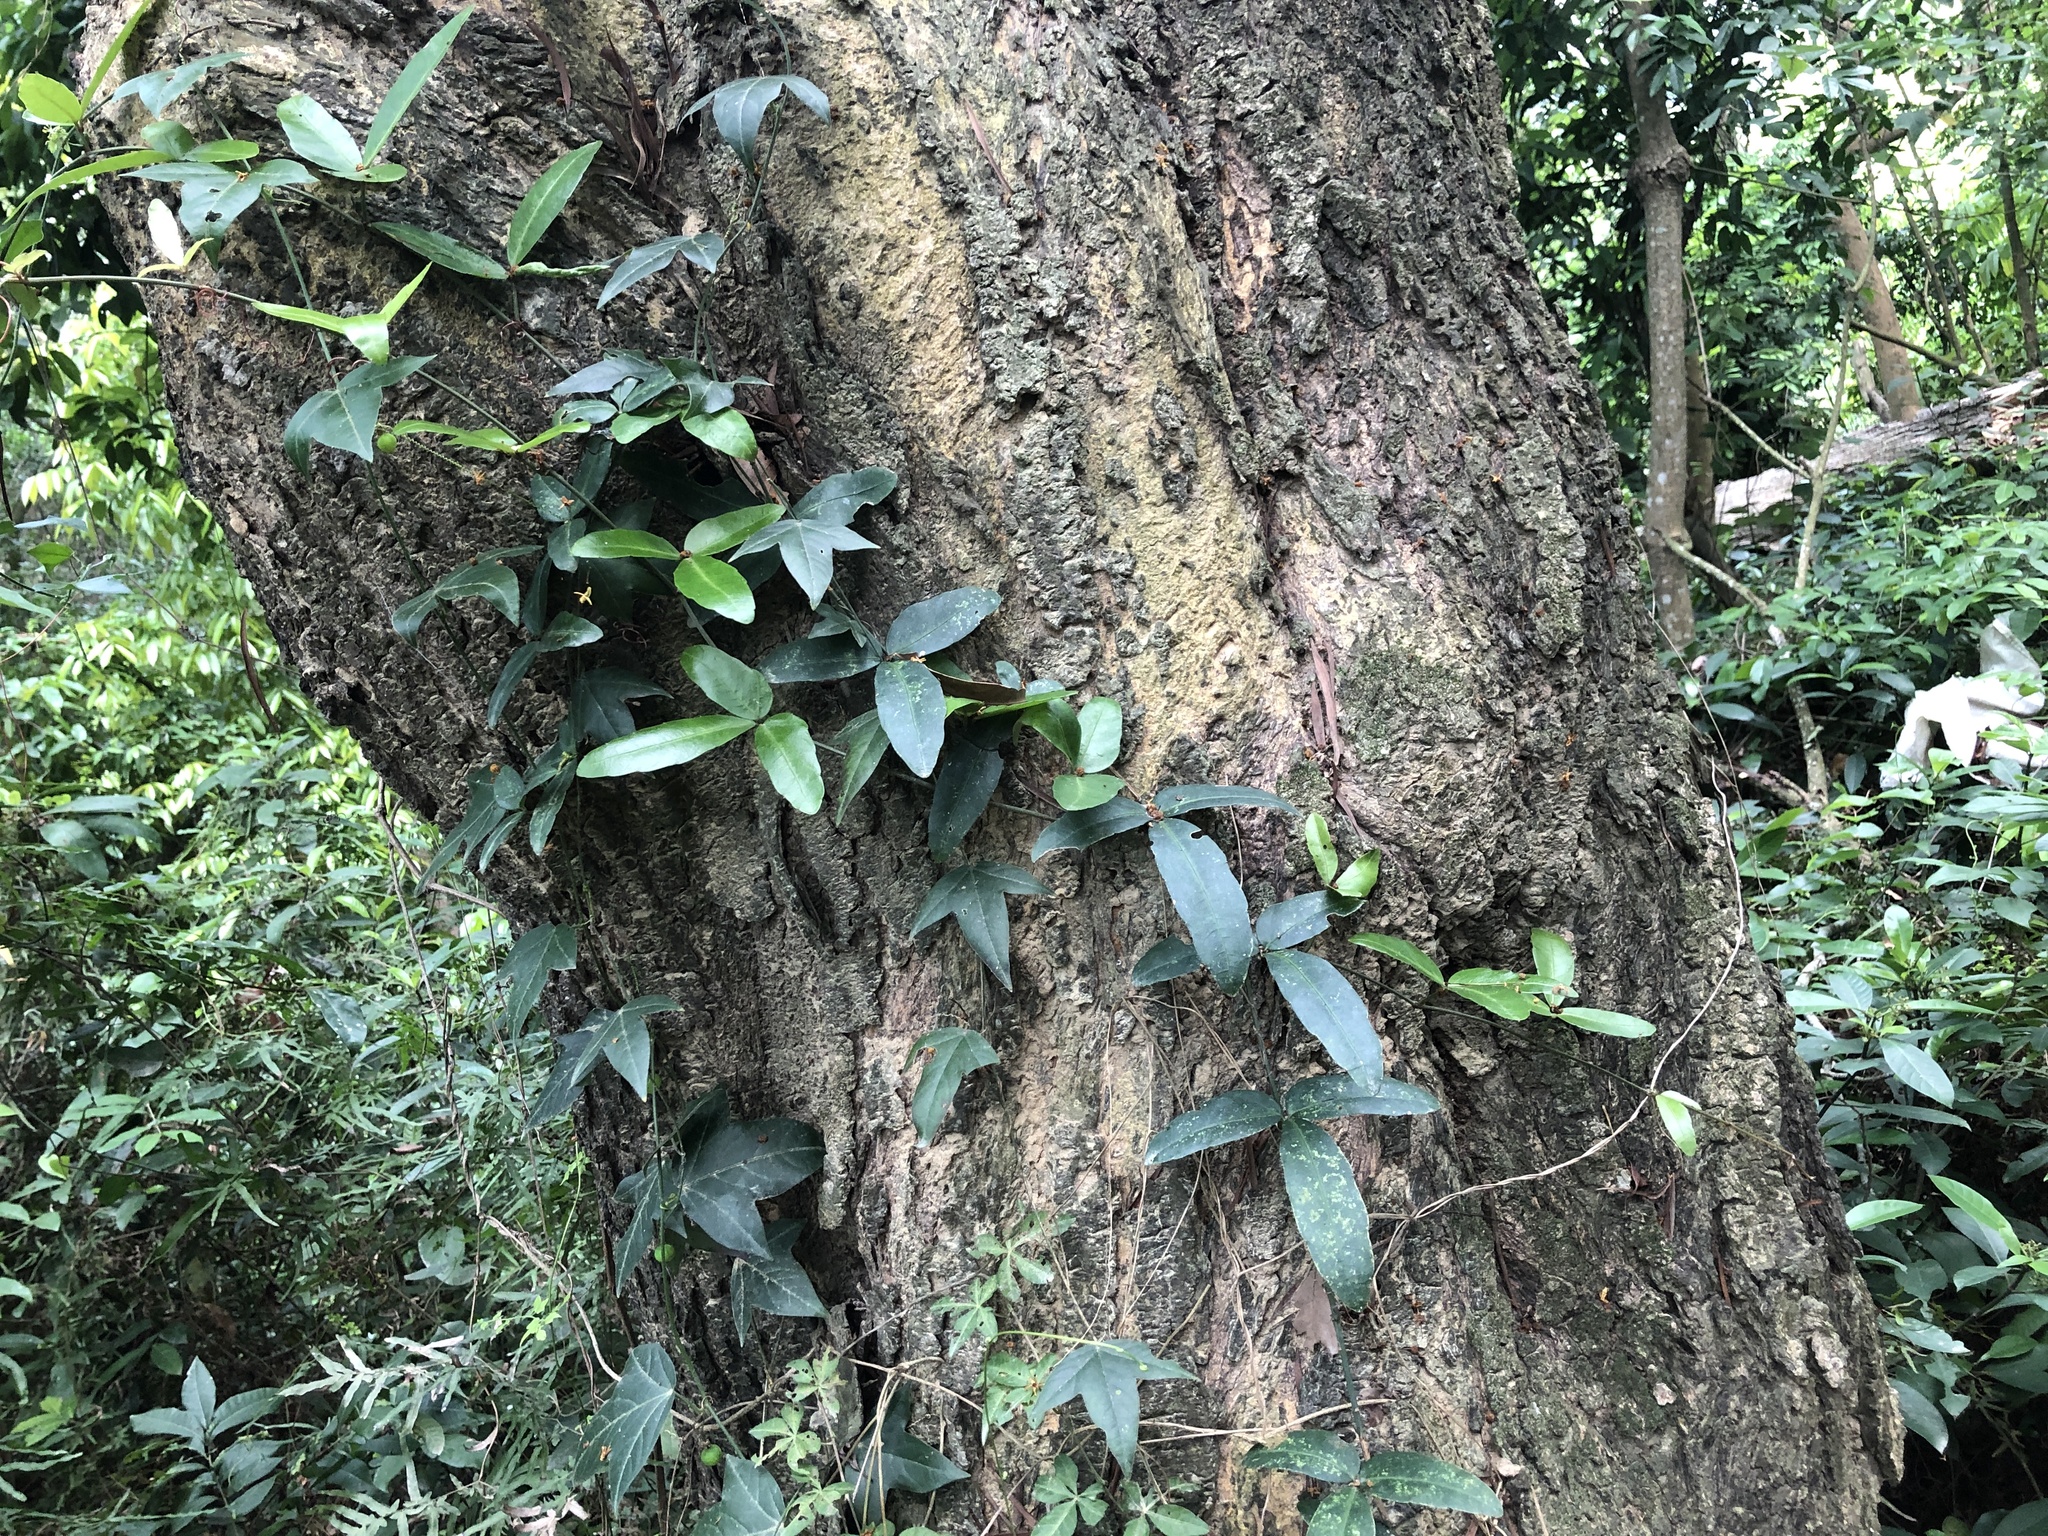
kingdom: Plantae
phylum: Tracheophyta
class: Magnoliopsida
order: Vitales
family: Vitaceae
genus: Tetrastigma
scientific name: Tetrastigma formosanum
